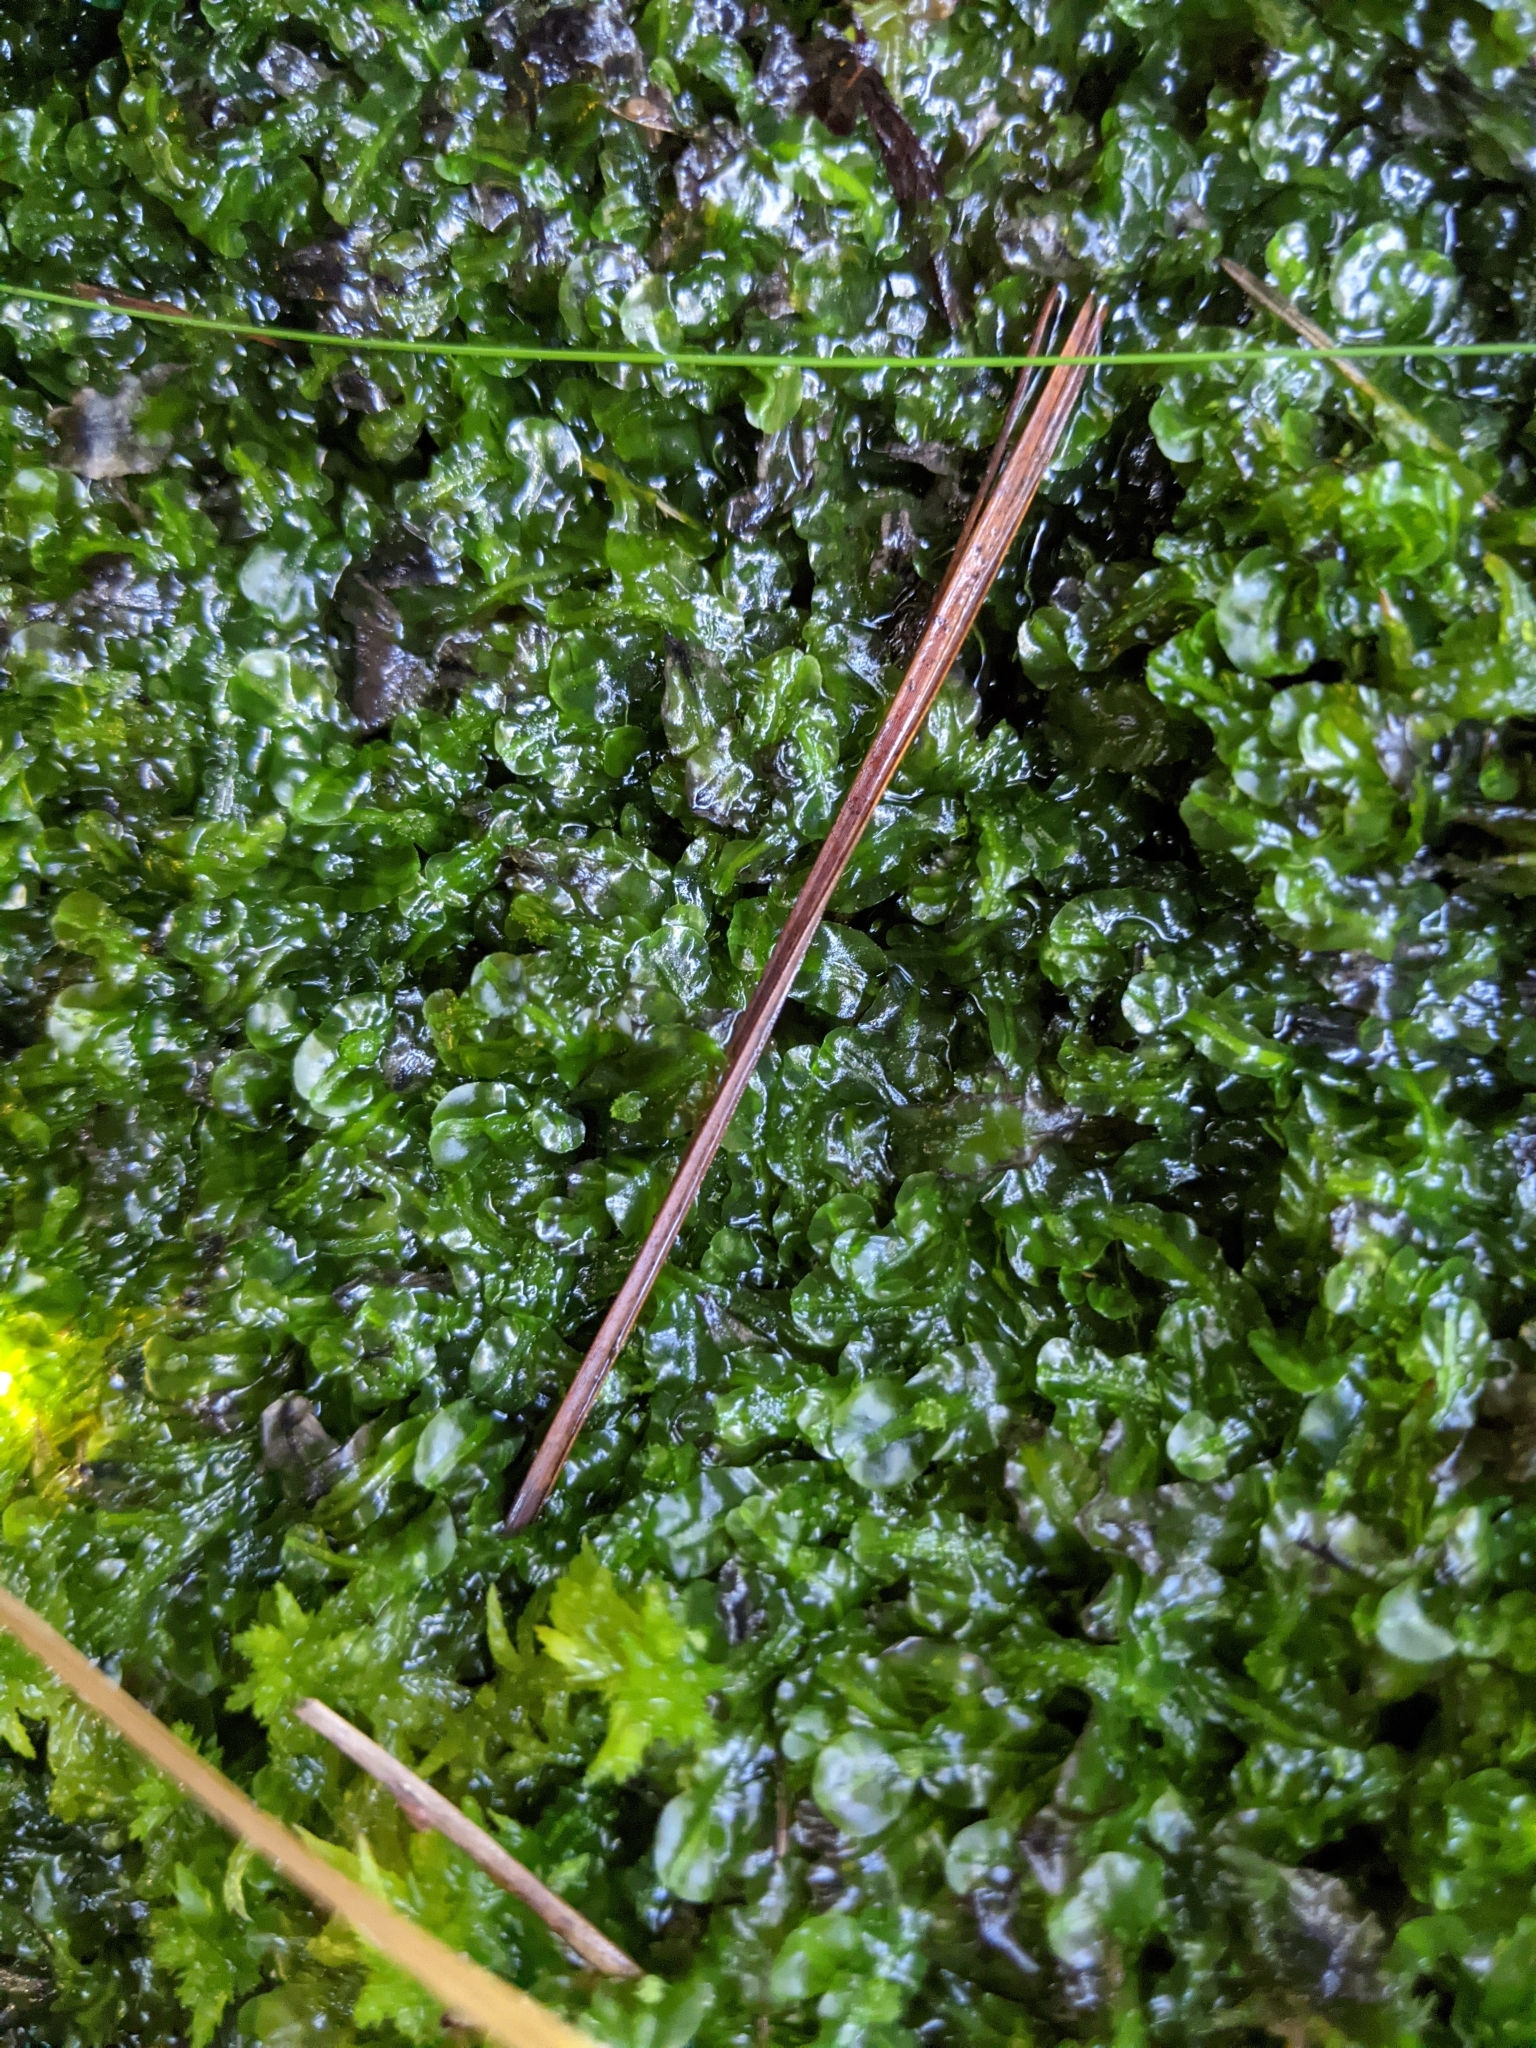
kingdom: Plantae
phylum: Marchantiophyta
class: Jungermanniopsida
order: Pallaviciniales
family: Pallaviciniaceae
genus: Pallavicinia
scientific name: Pallavicinia lyellii
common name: Veilwort
